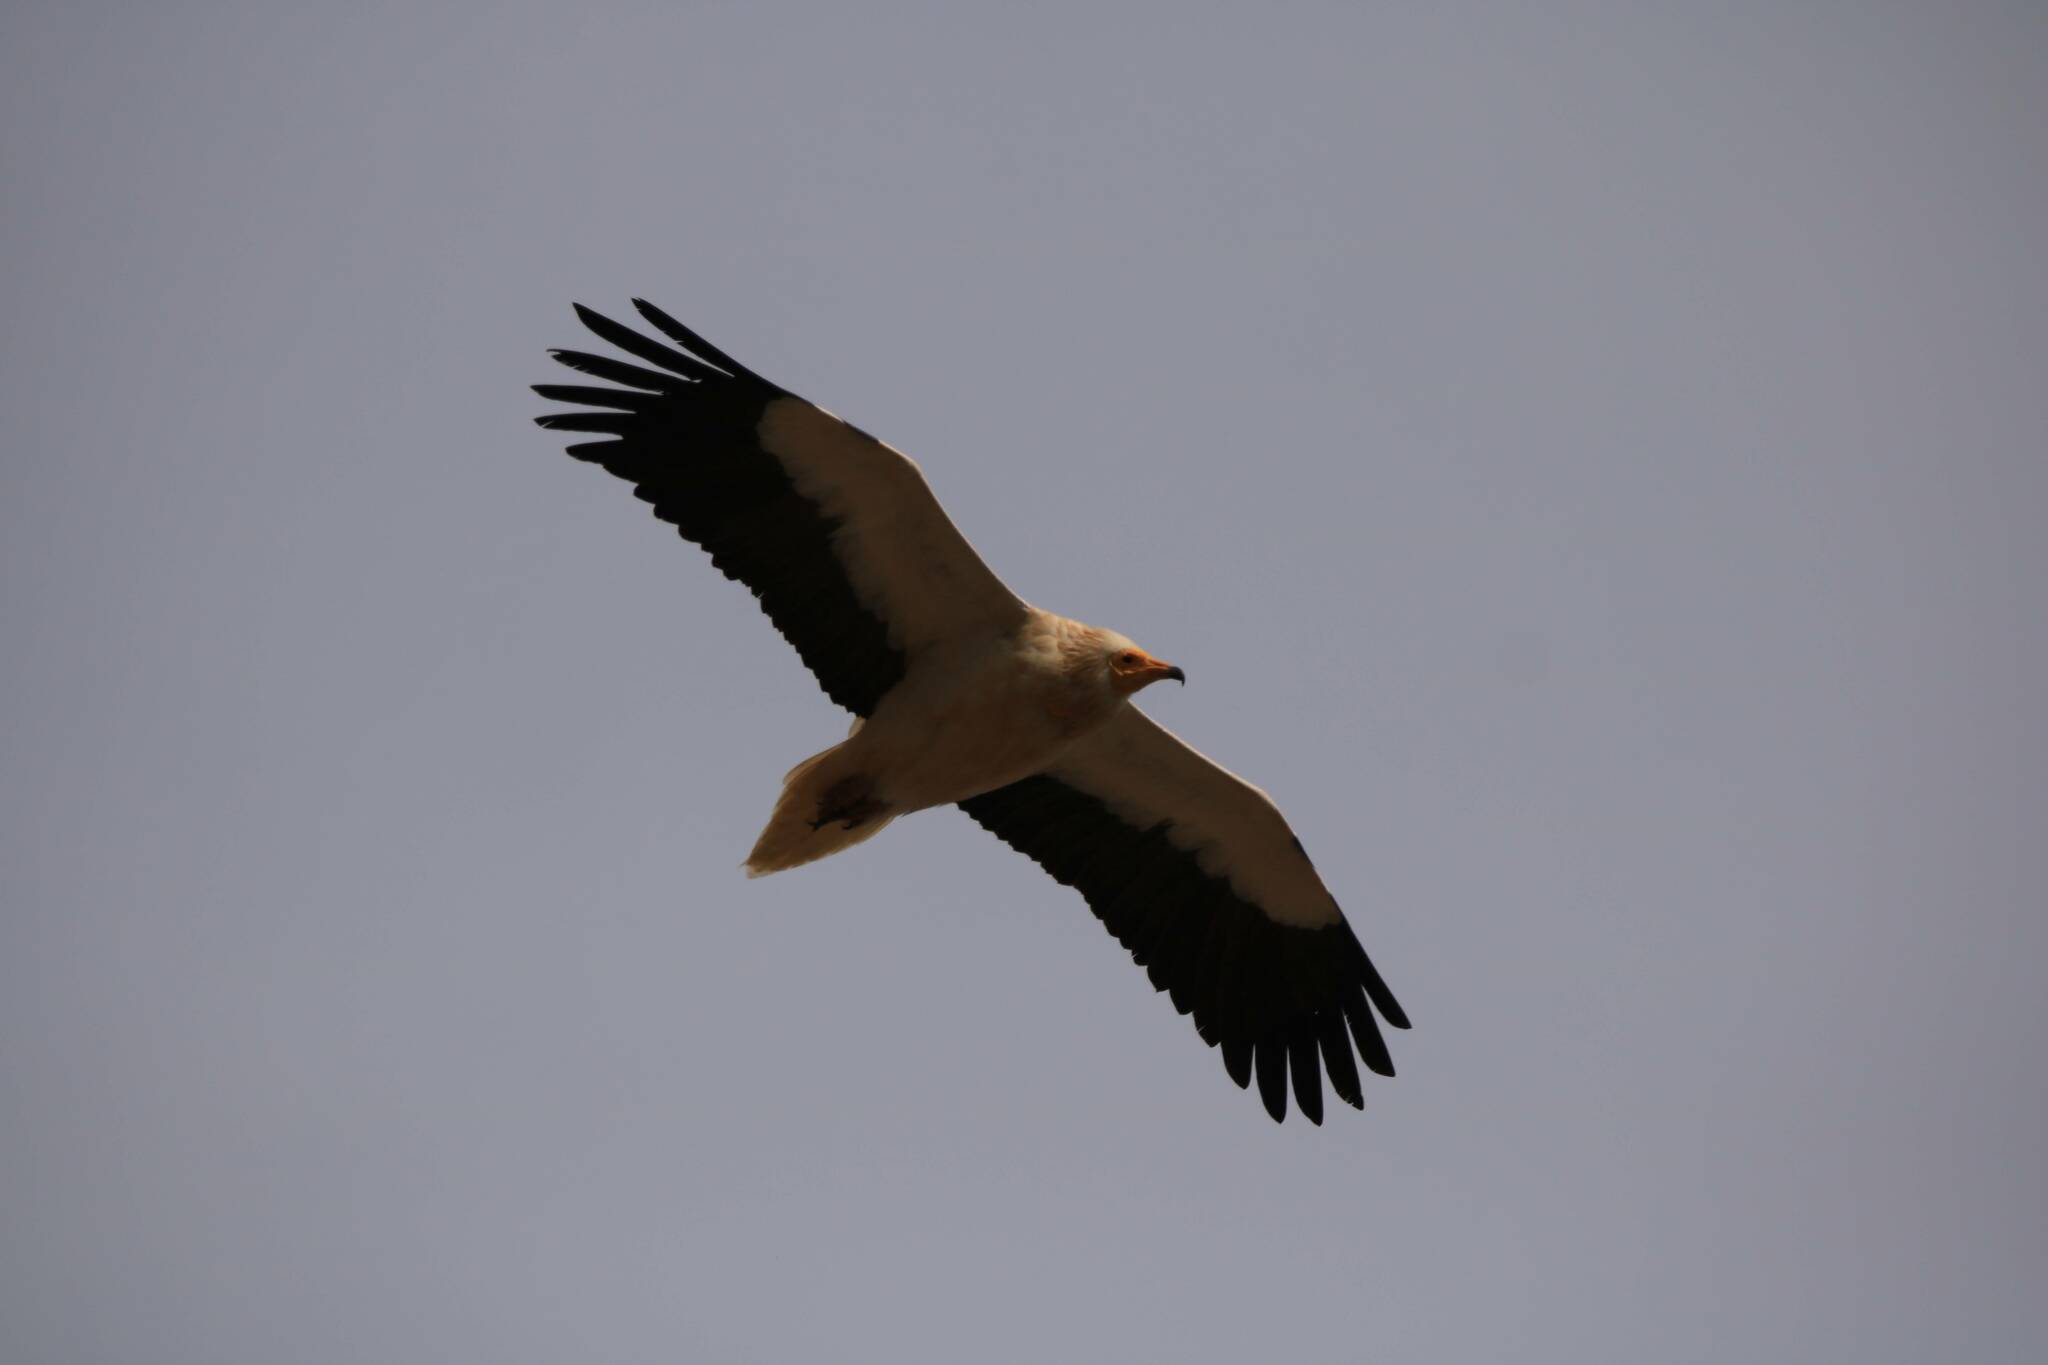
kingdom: Animalia
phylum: Chordata
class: Aves
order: Accipitriformes
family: Accipitridae
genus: Neophron
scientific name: Neophron percnopterus
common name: Egyptian vulture
